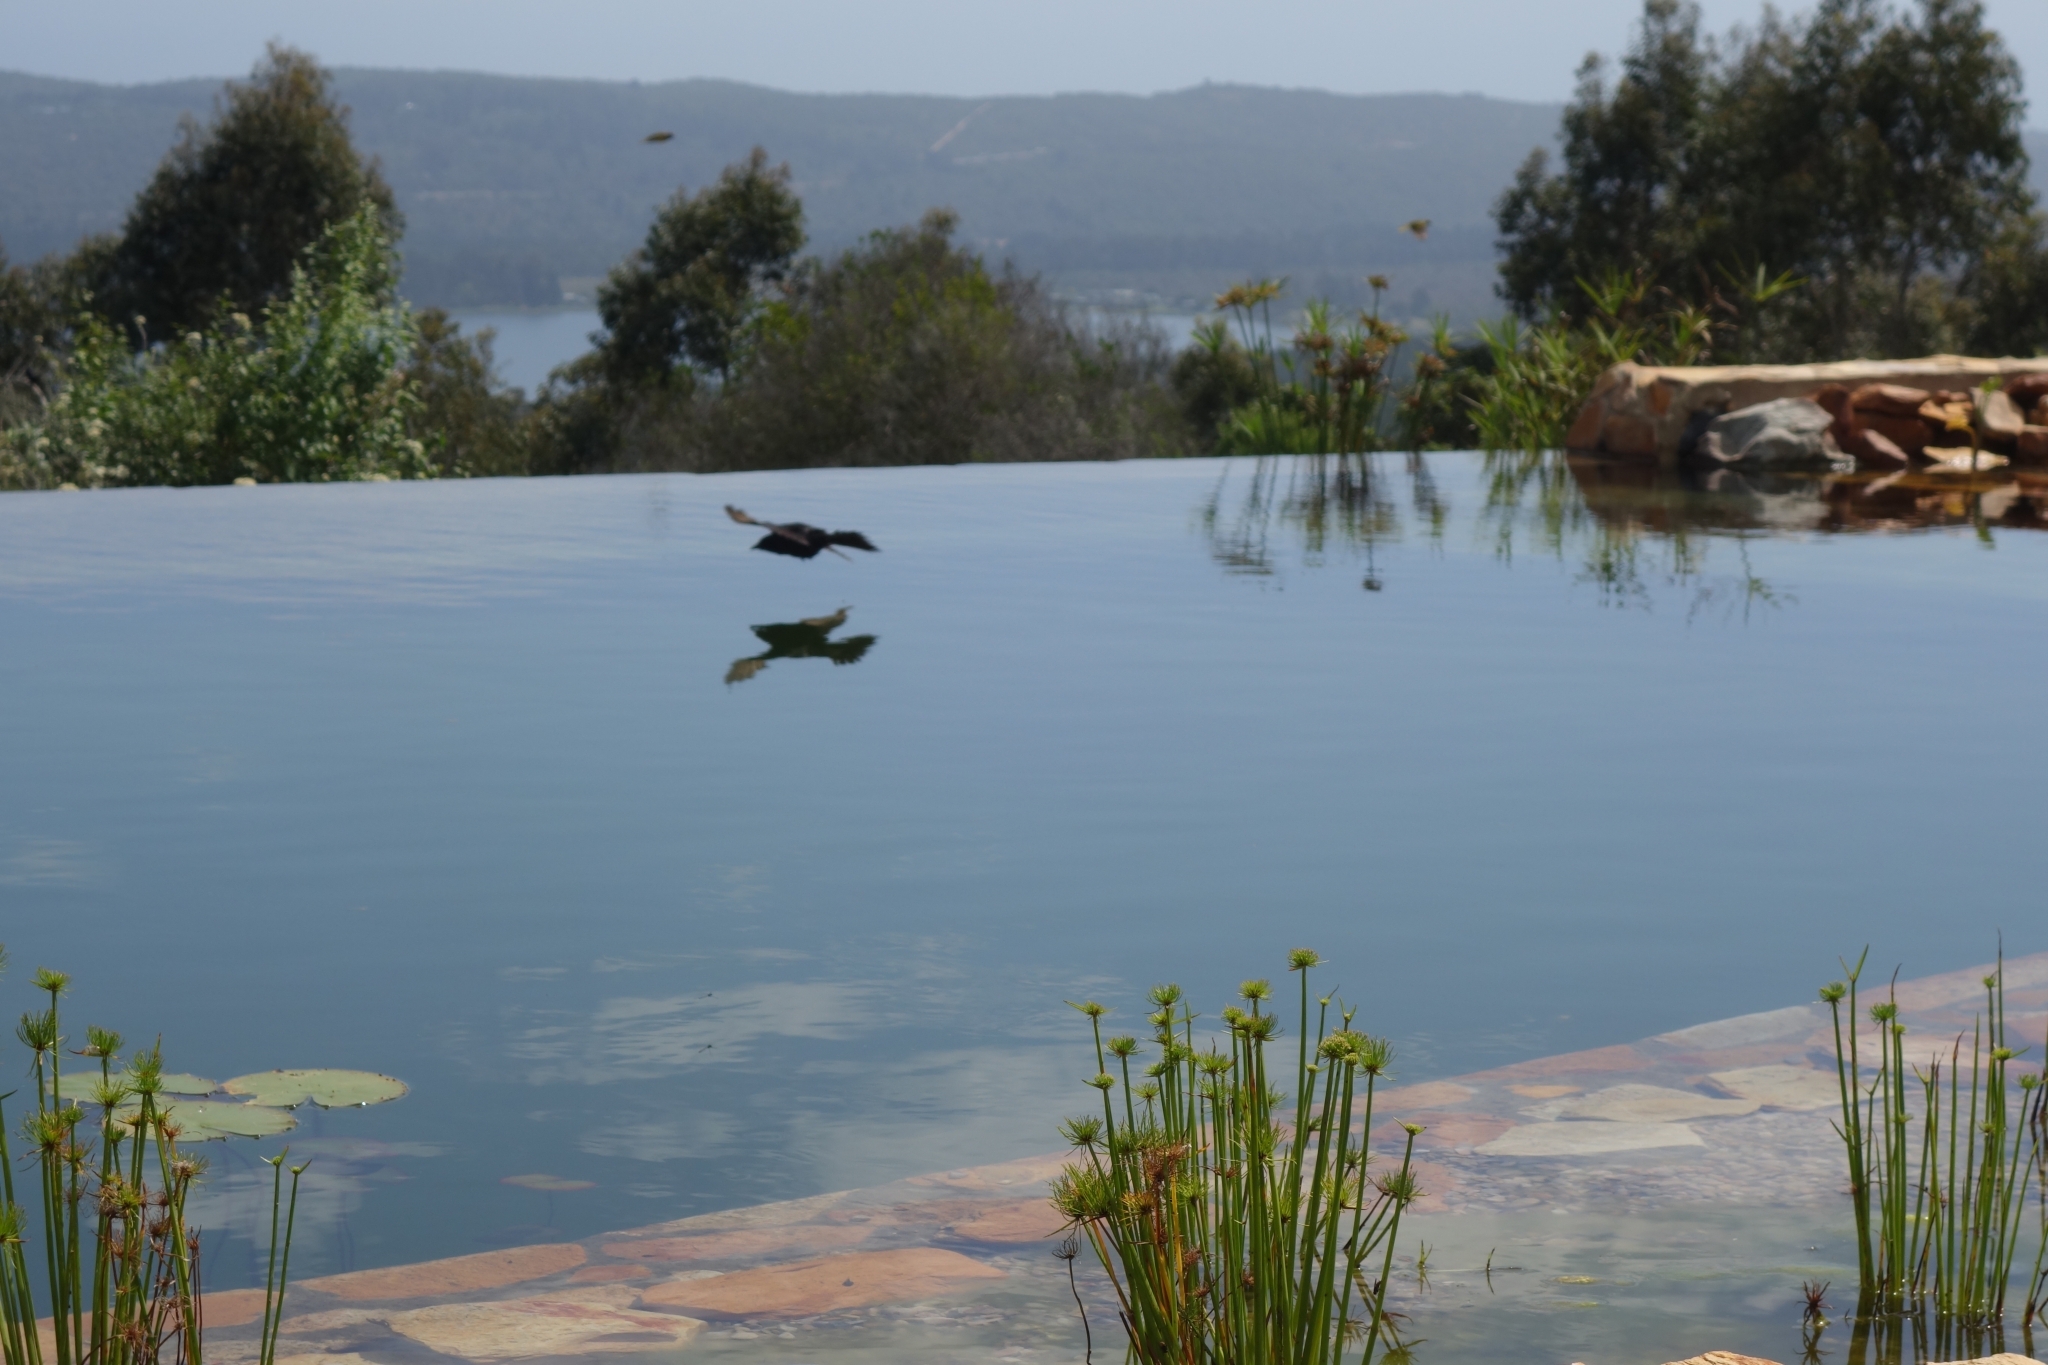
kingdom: Animalia
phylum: Chordata
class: Aves
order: Passeriformes
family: Dicruridae
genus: Dicrurus
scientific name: Dicrurus adsimilis
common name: Fork-tailed drongo
